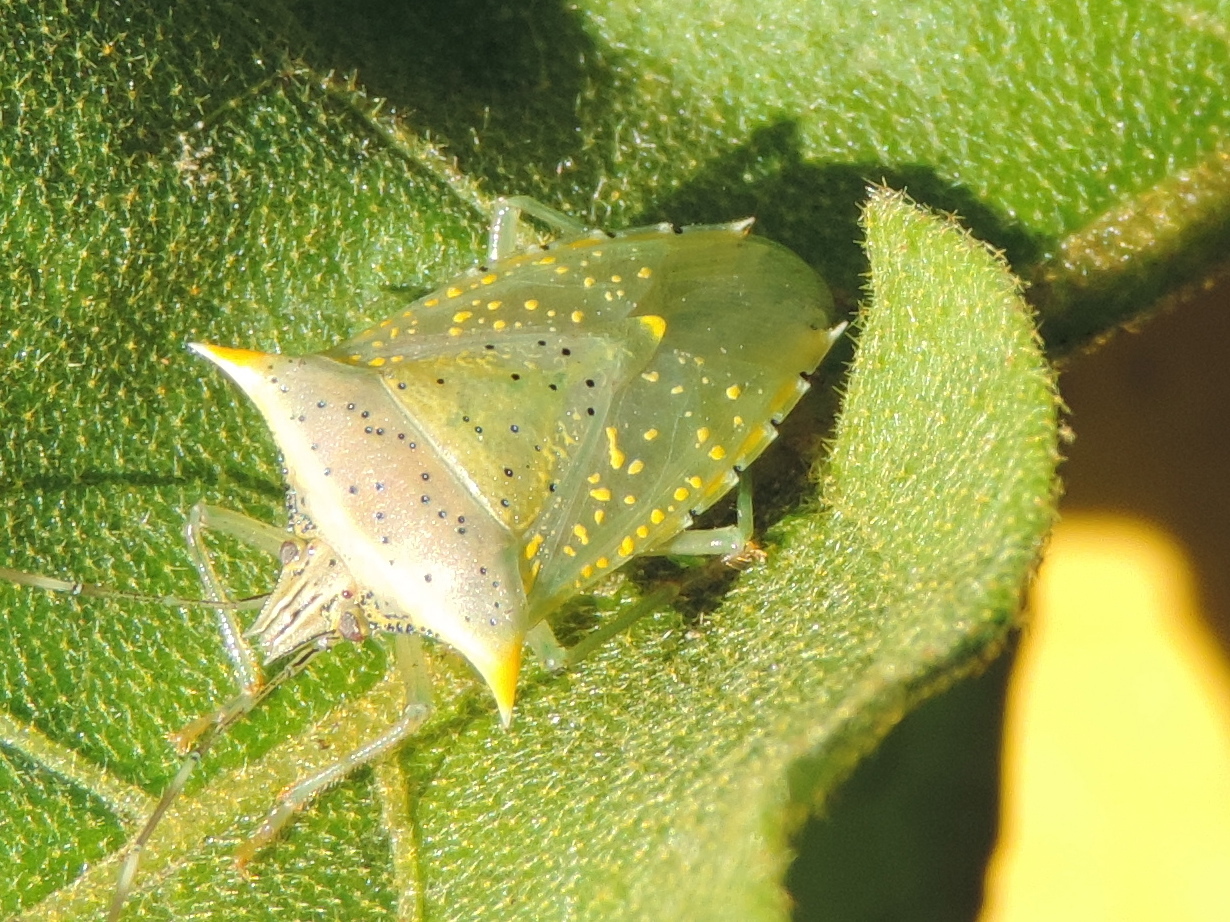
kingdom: Animalia
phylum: Arthropoda
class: Insecta
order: Hemiptera
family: Pentatomidae
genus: Arvelius
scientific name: Arvelius albopunctatus
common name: Tomato stink bug
